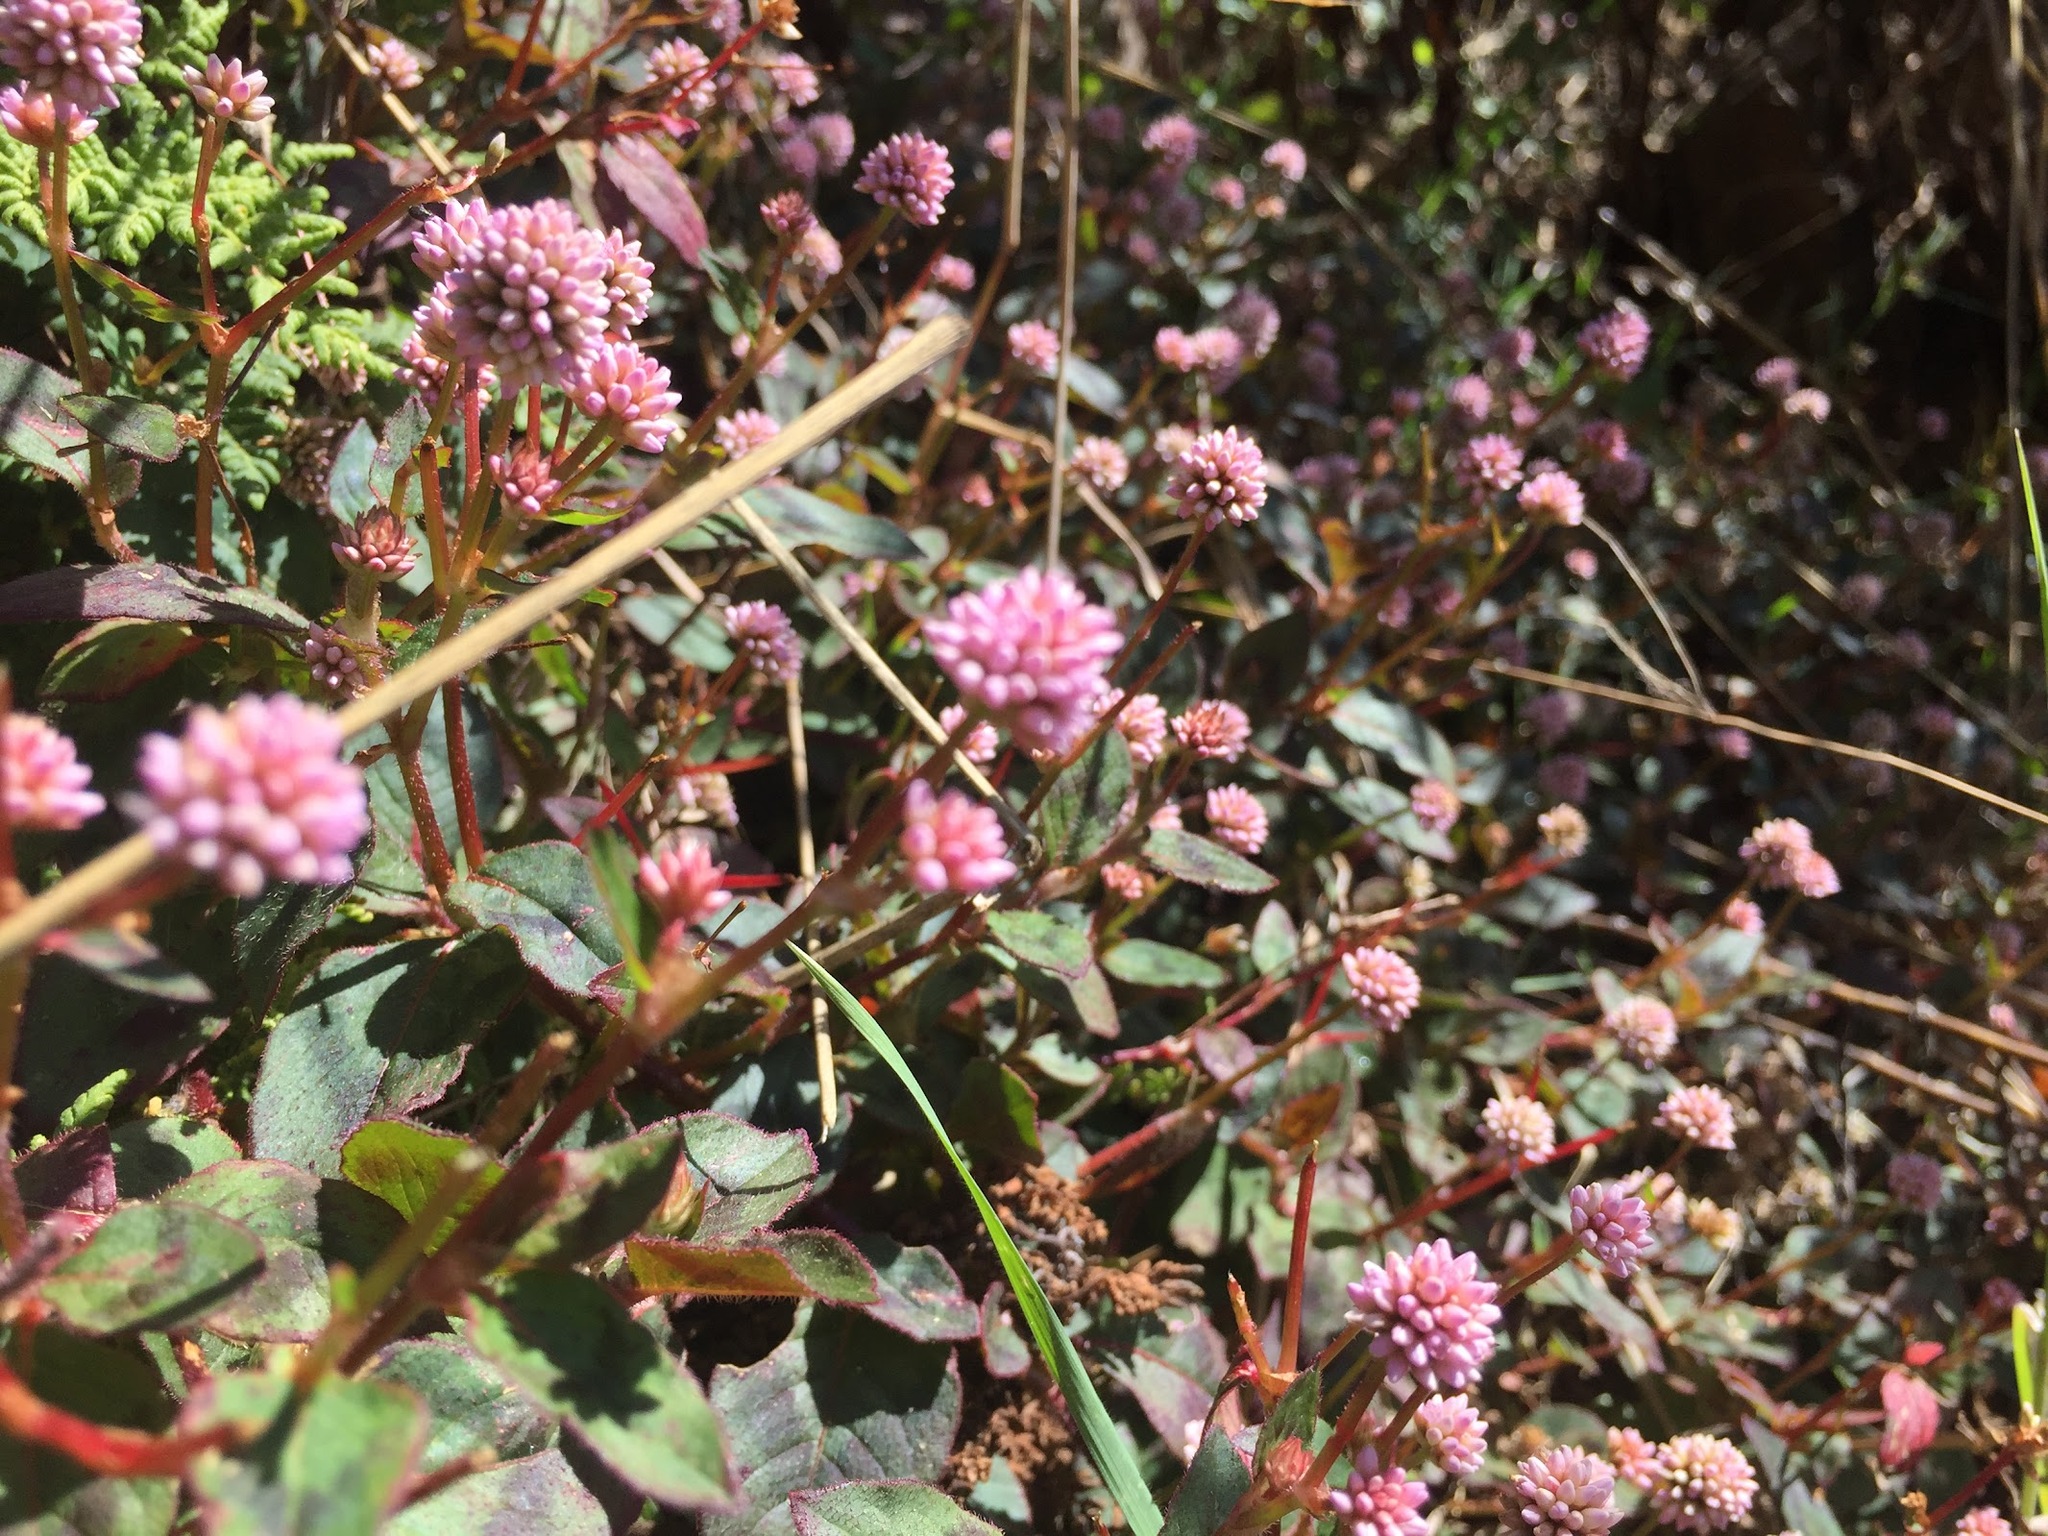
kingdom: Plantae
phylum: Tracheophyta
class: Magnoliopsida
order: Caryophyllales
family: Polygonaceae
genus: Persicaria
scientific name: Persicaria capitata
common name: Pinkhead smartweed
